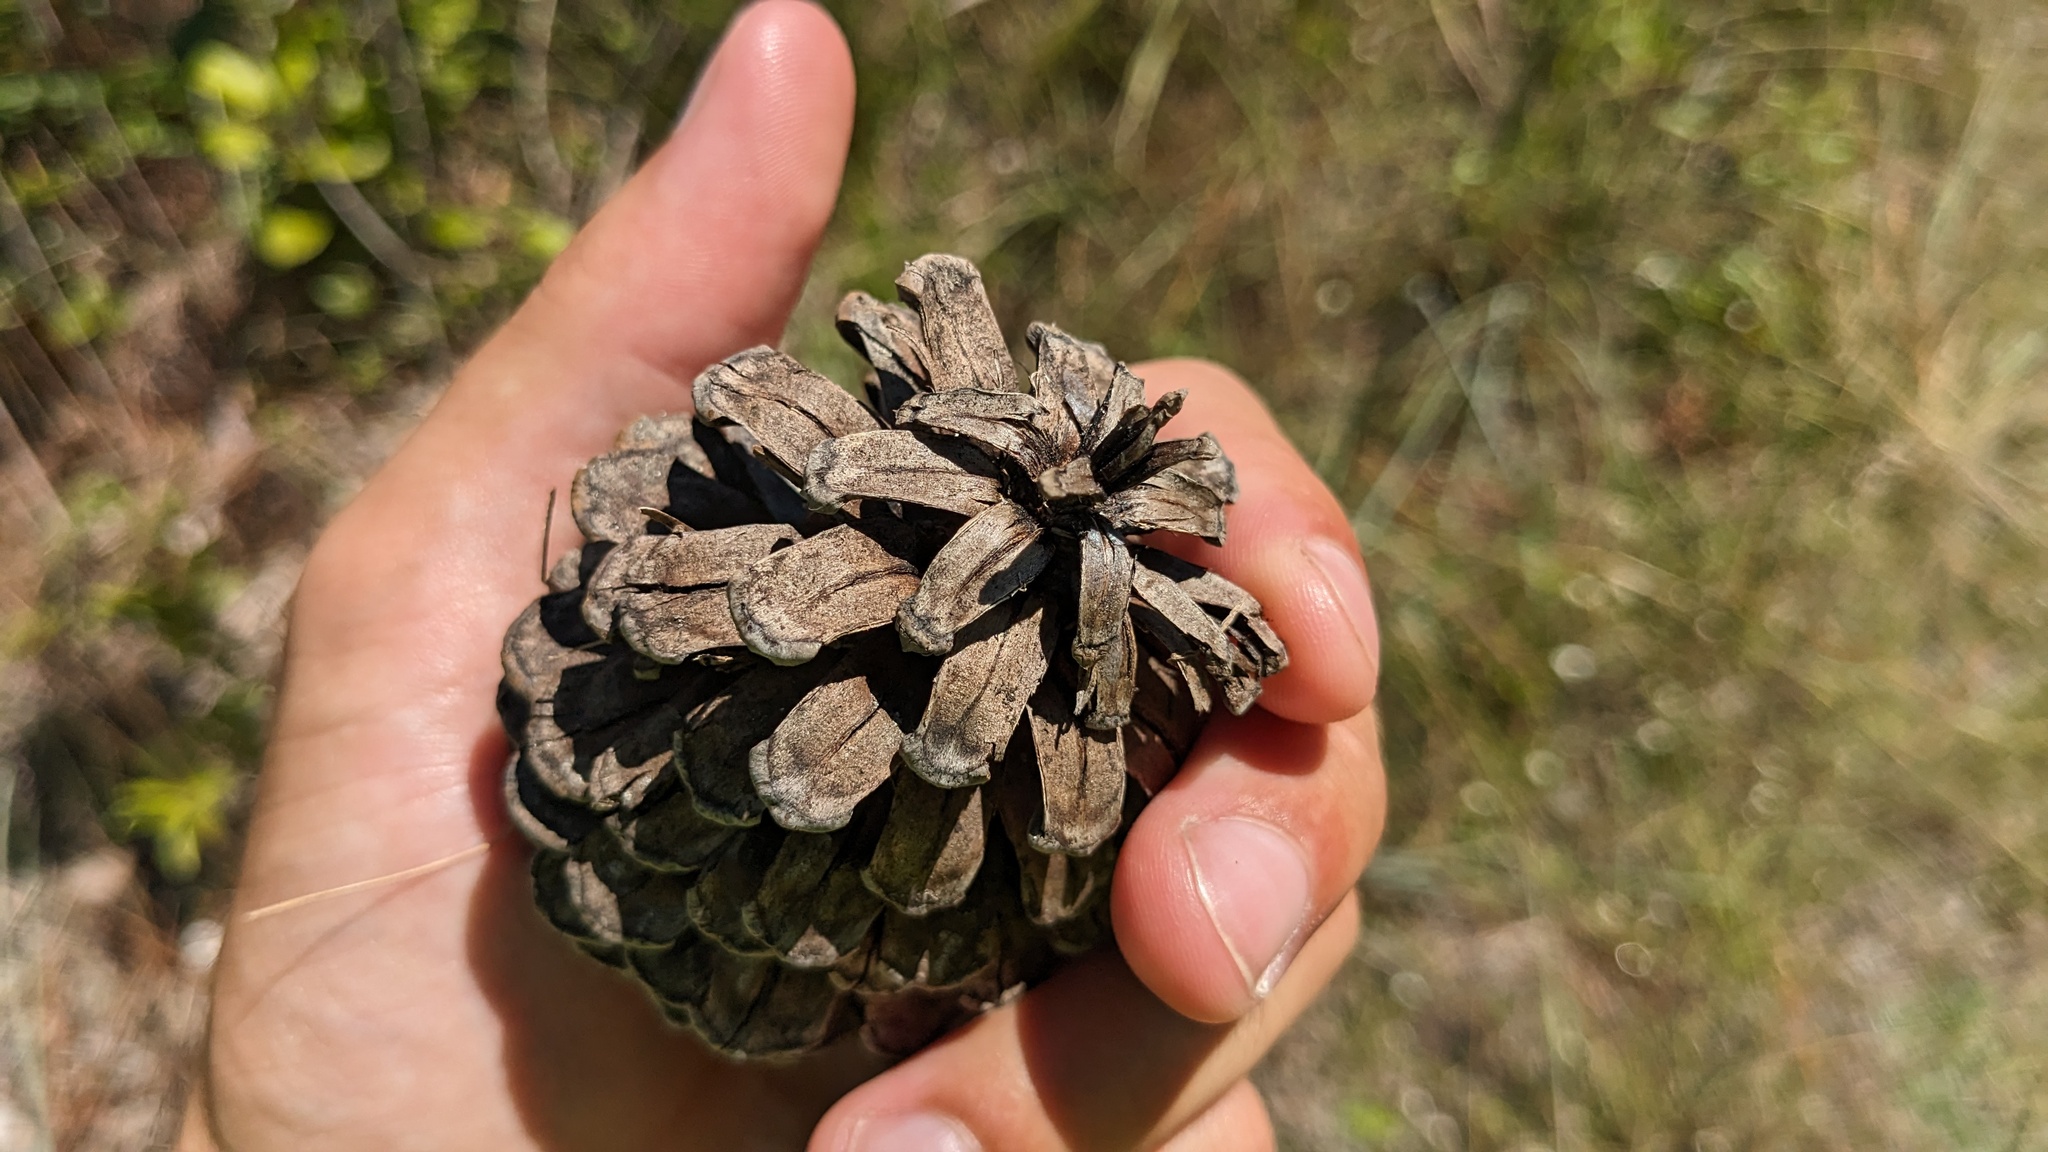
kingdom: Plantae
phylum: Tracheophyta
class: Pinopsida
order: Pinales
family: Pinaceae
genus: Pinus
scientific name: Pinus elliottii
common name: Slash pine
